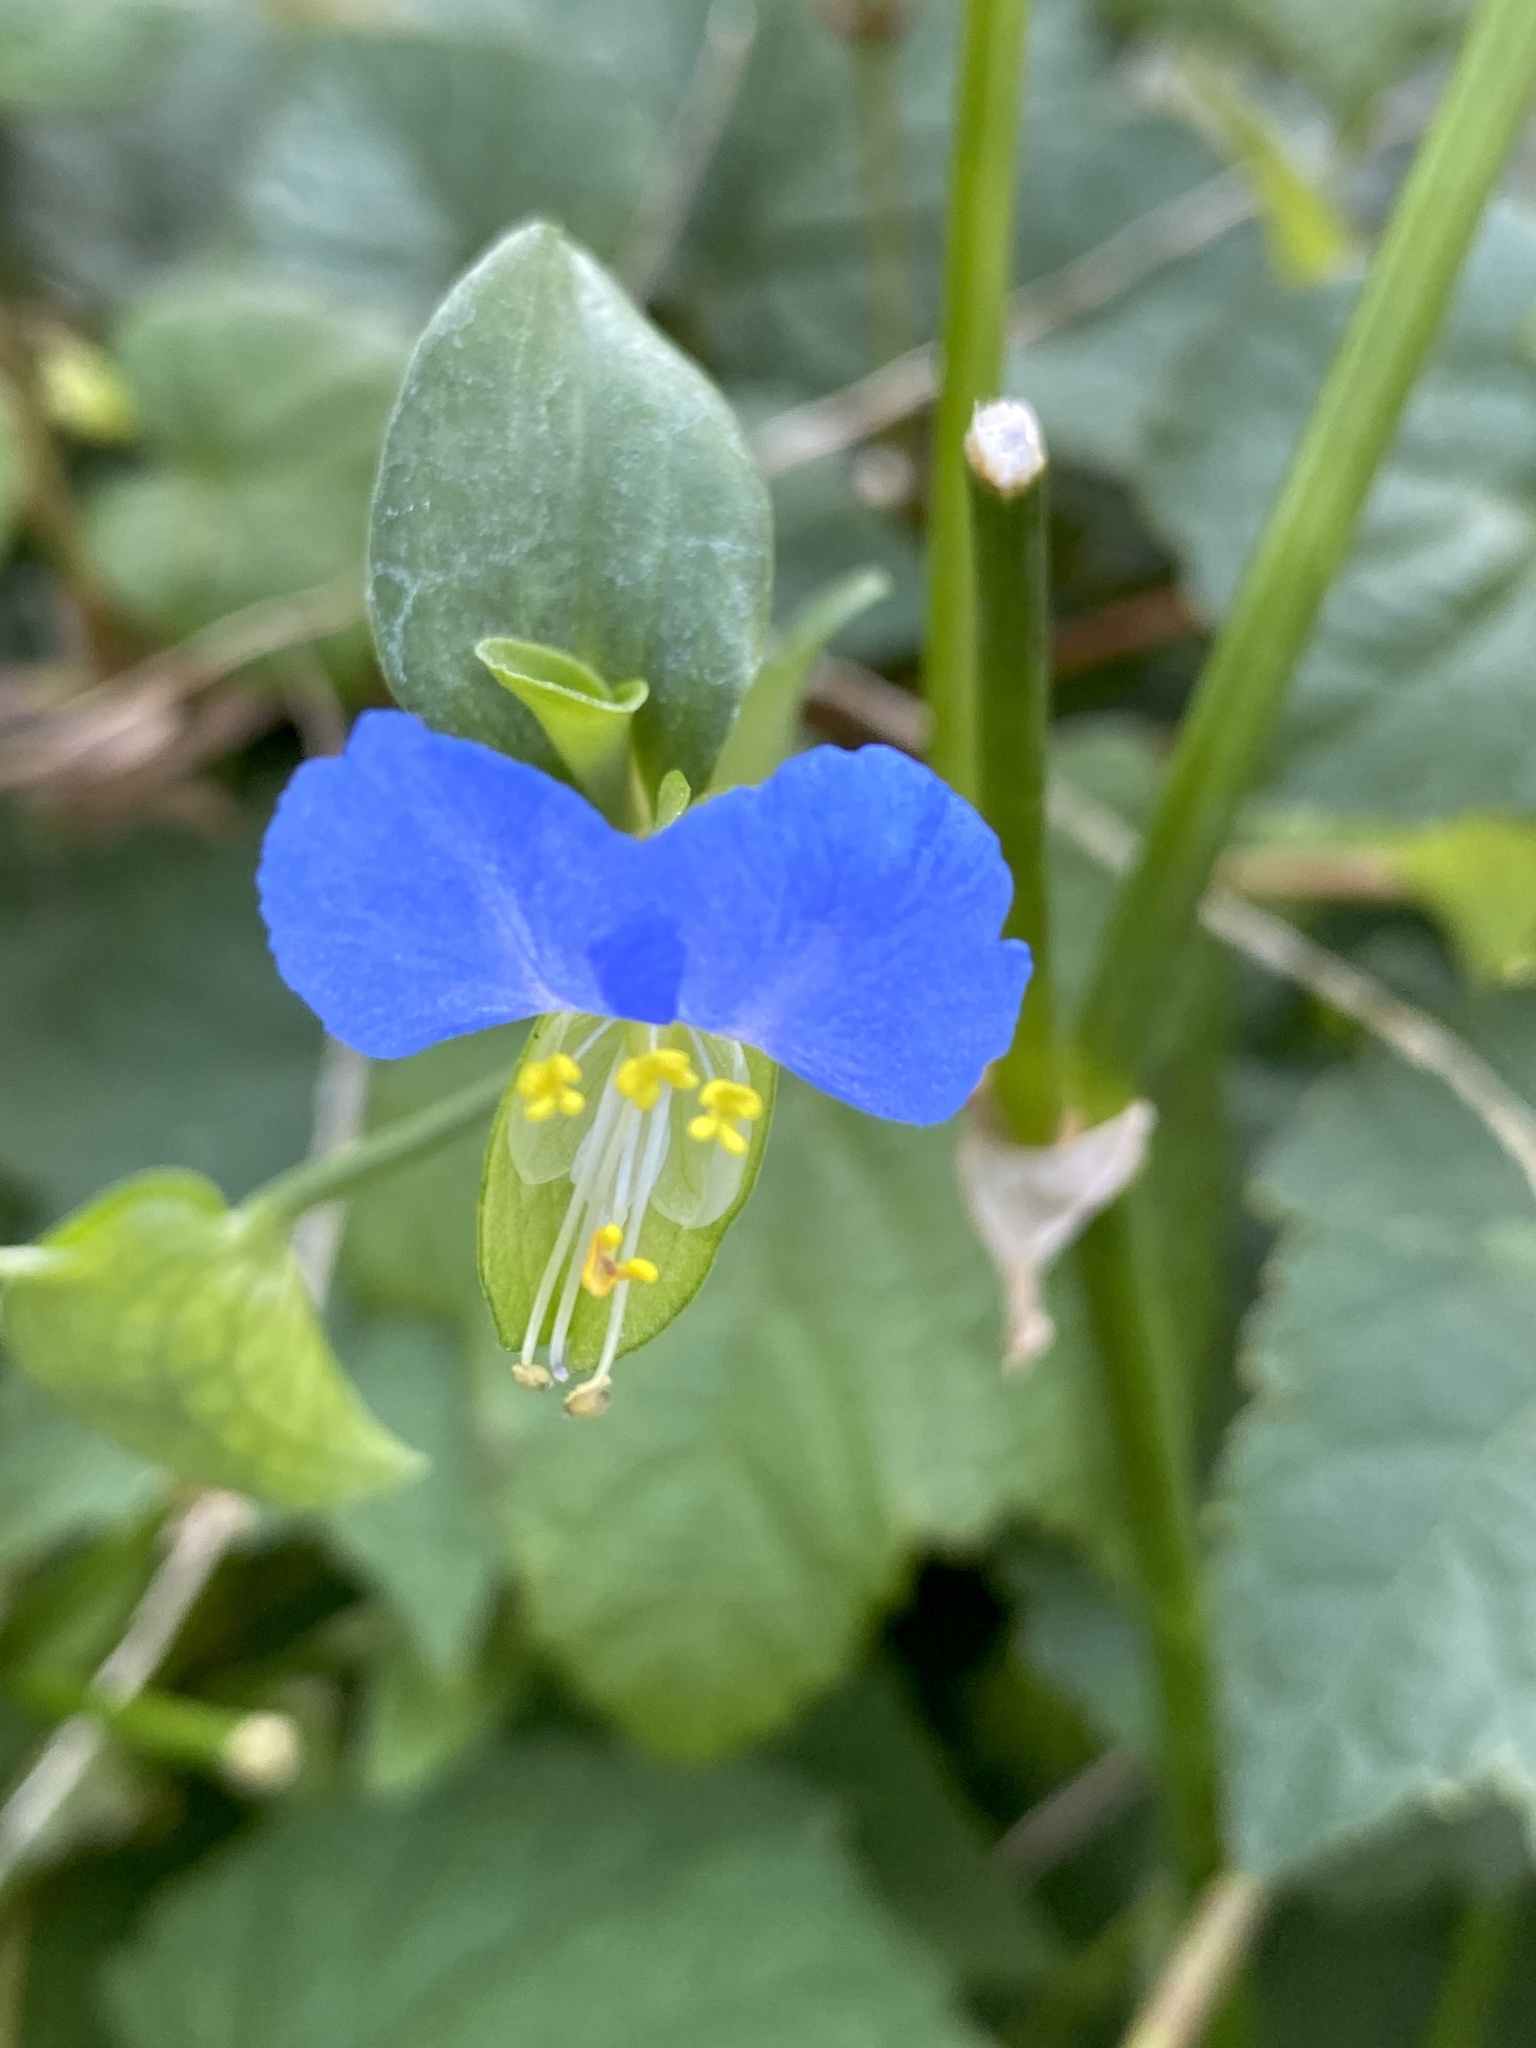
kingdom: Plantae
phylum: Tracheophyta
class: Liliopsida
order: Commelinales
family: Commelinaceae
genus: Commelina
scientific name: Commelina communis
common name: Asiatic dayflower
